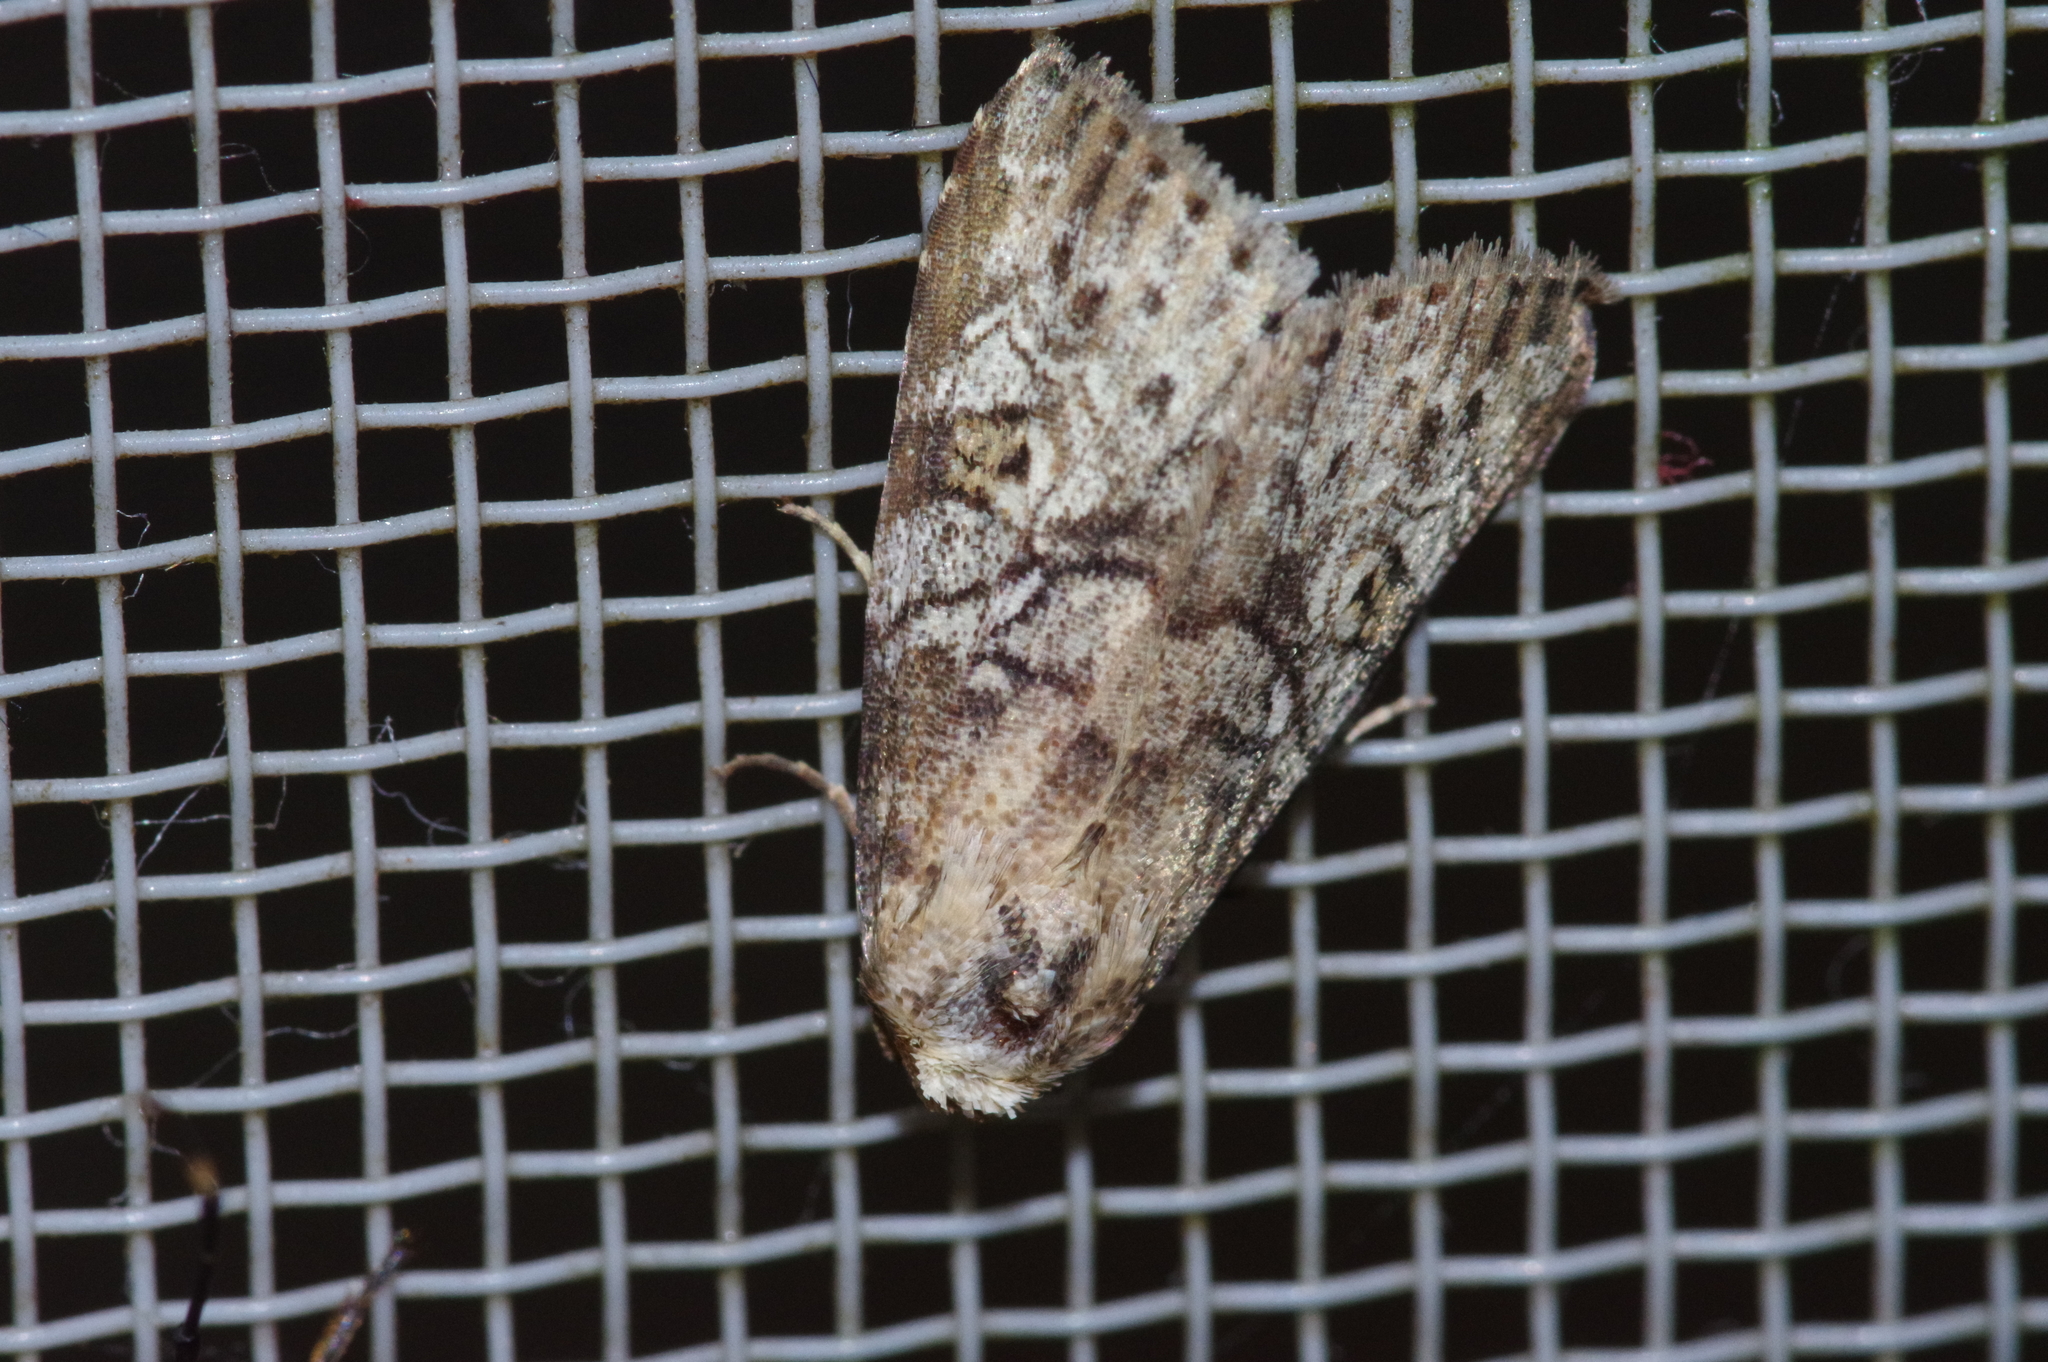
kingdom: Animalia
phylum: Arthropoda
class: Insecta
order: Lepidoptera
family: Erebidae
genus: Chorsia
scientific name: Chorsia mollicula
